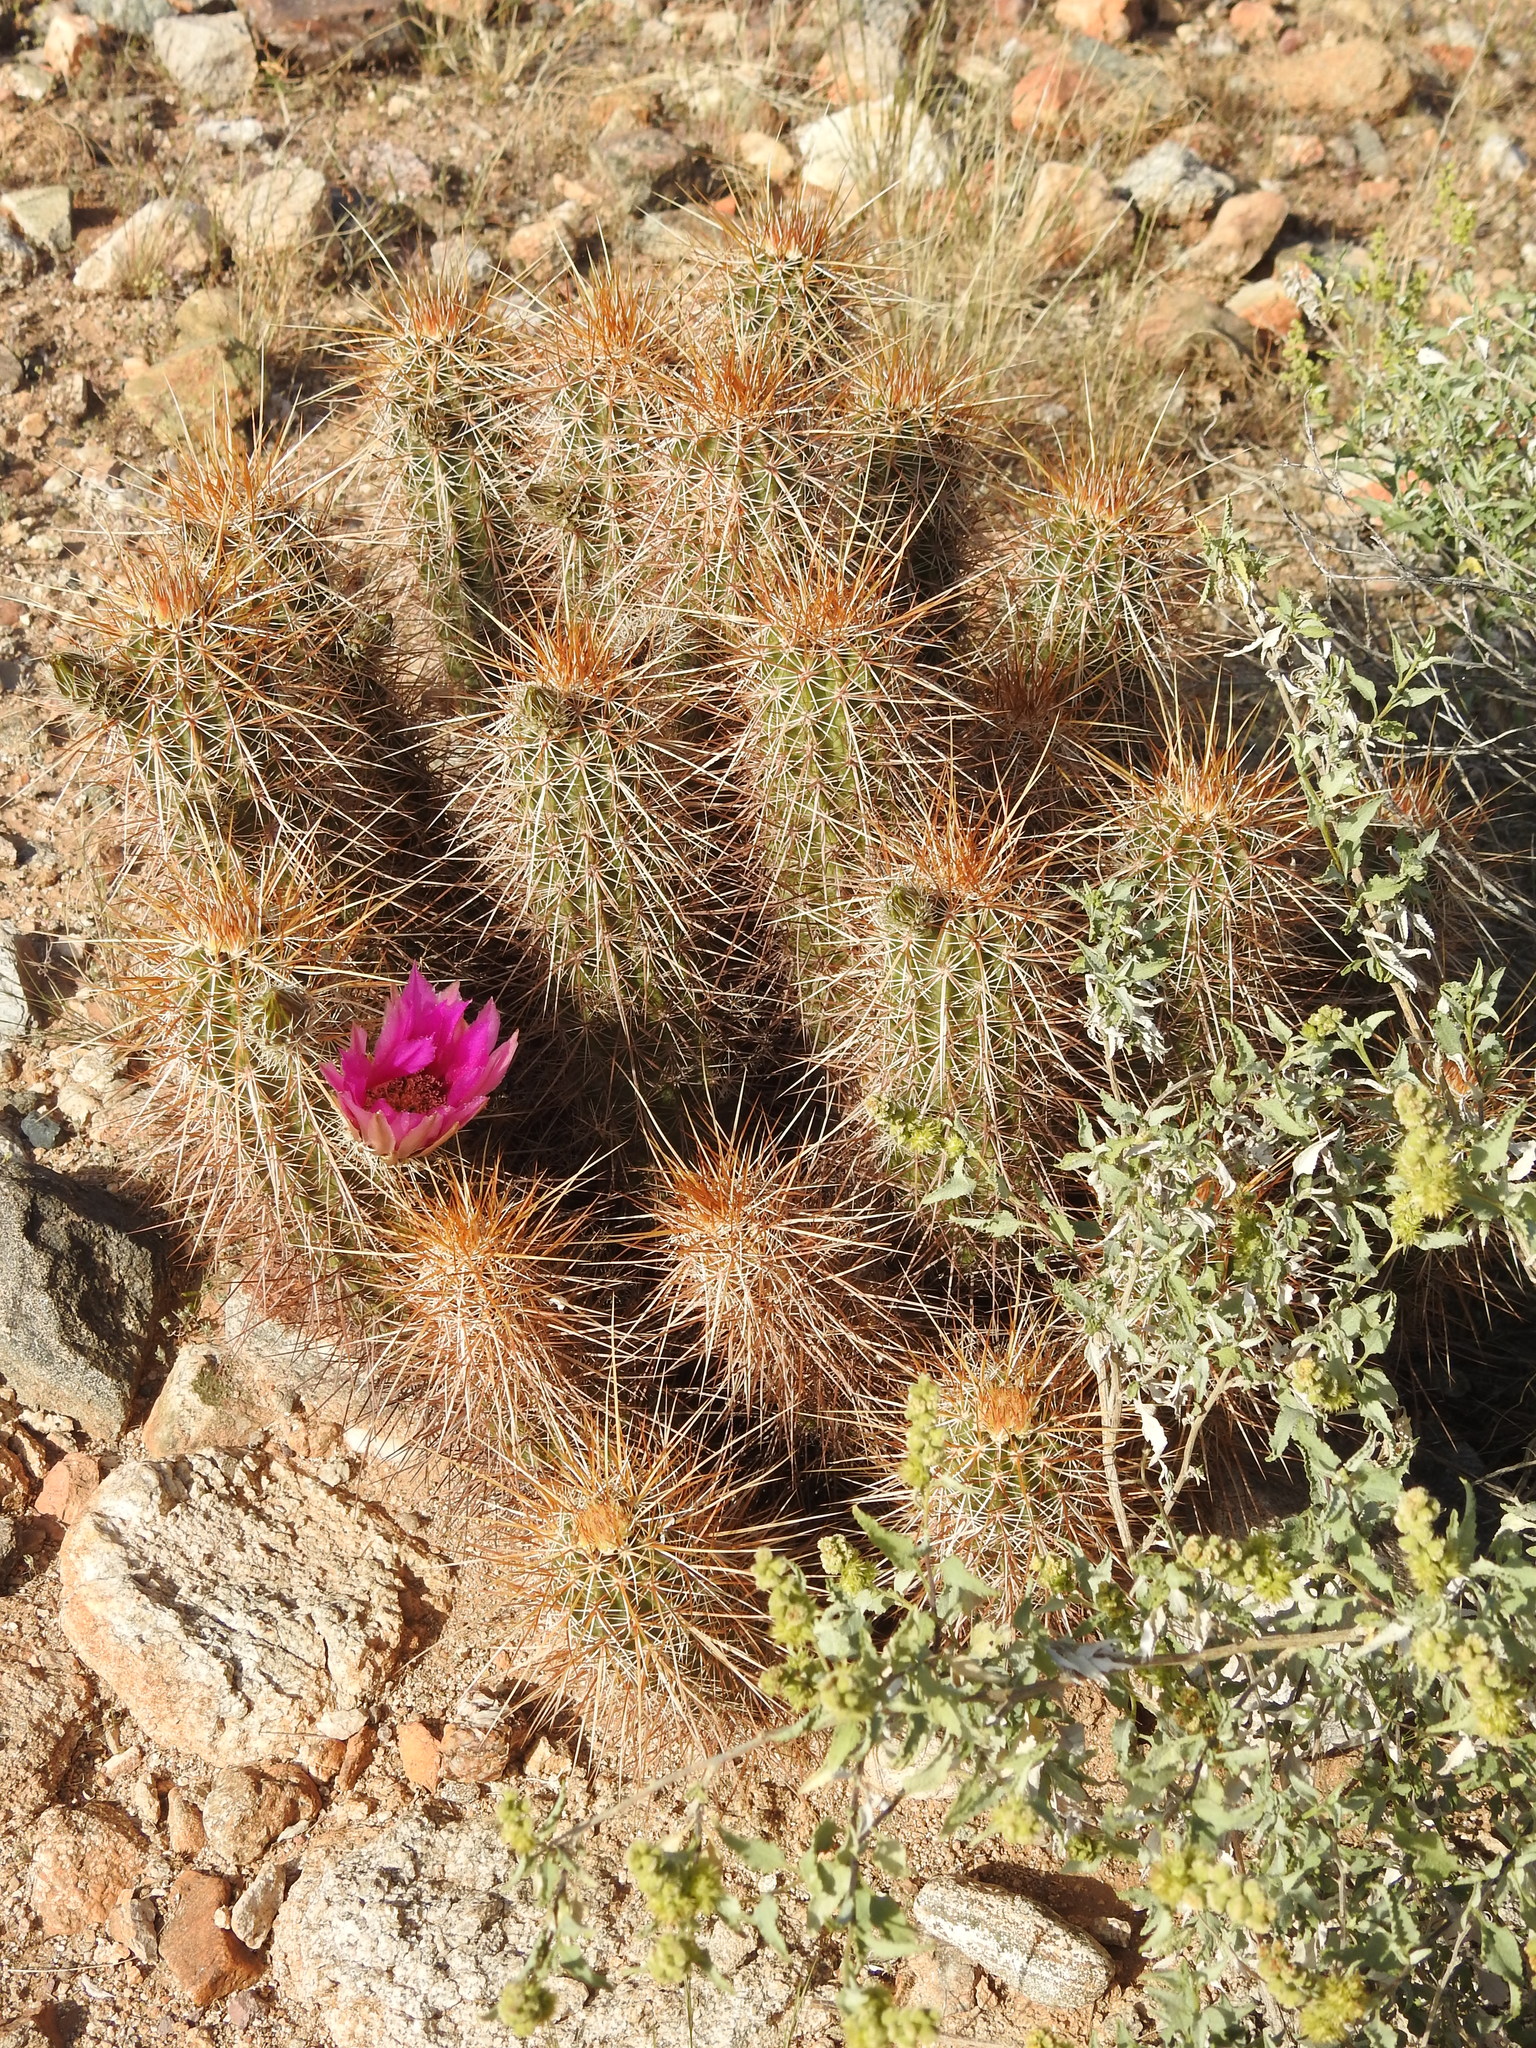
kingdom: Plantae
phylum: Tracheophyta
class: Magnoliopsida
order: Caryophyllales
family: Cactaceae
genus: Echinocereus
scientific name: Echinocereus engelmannii
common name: Engelmann's hedgehog cactus
